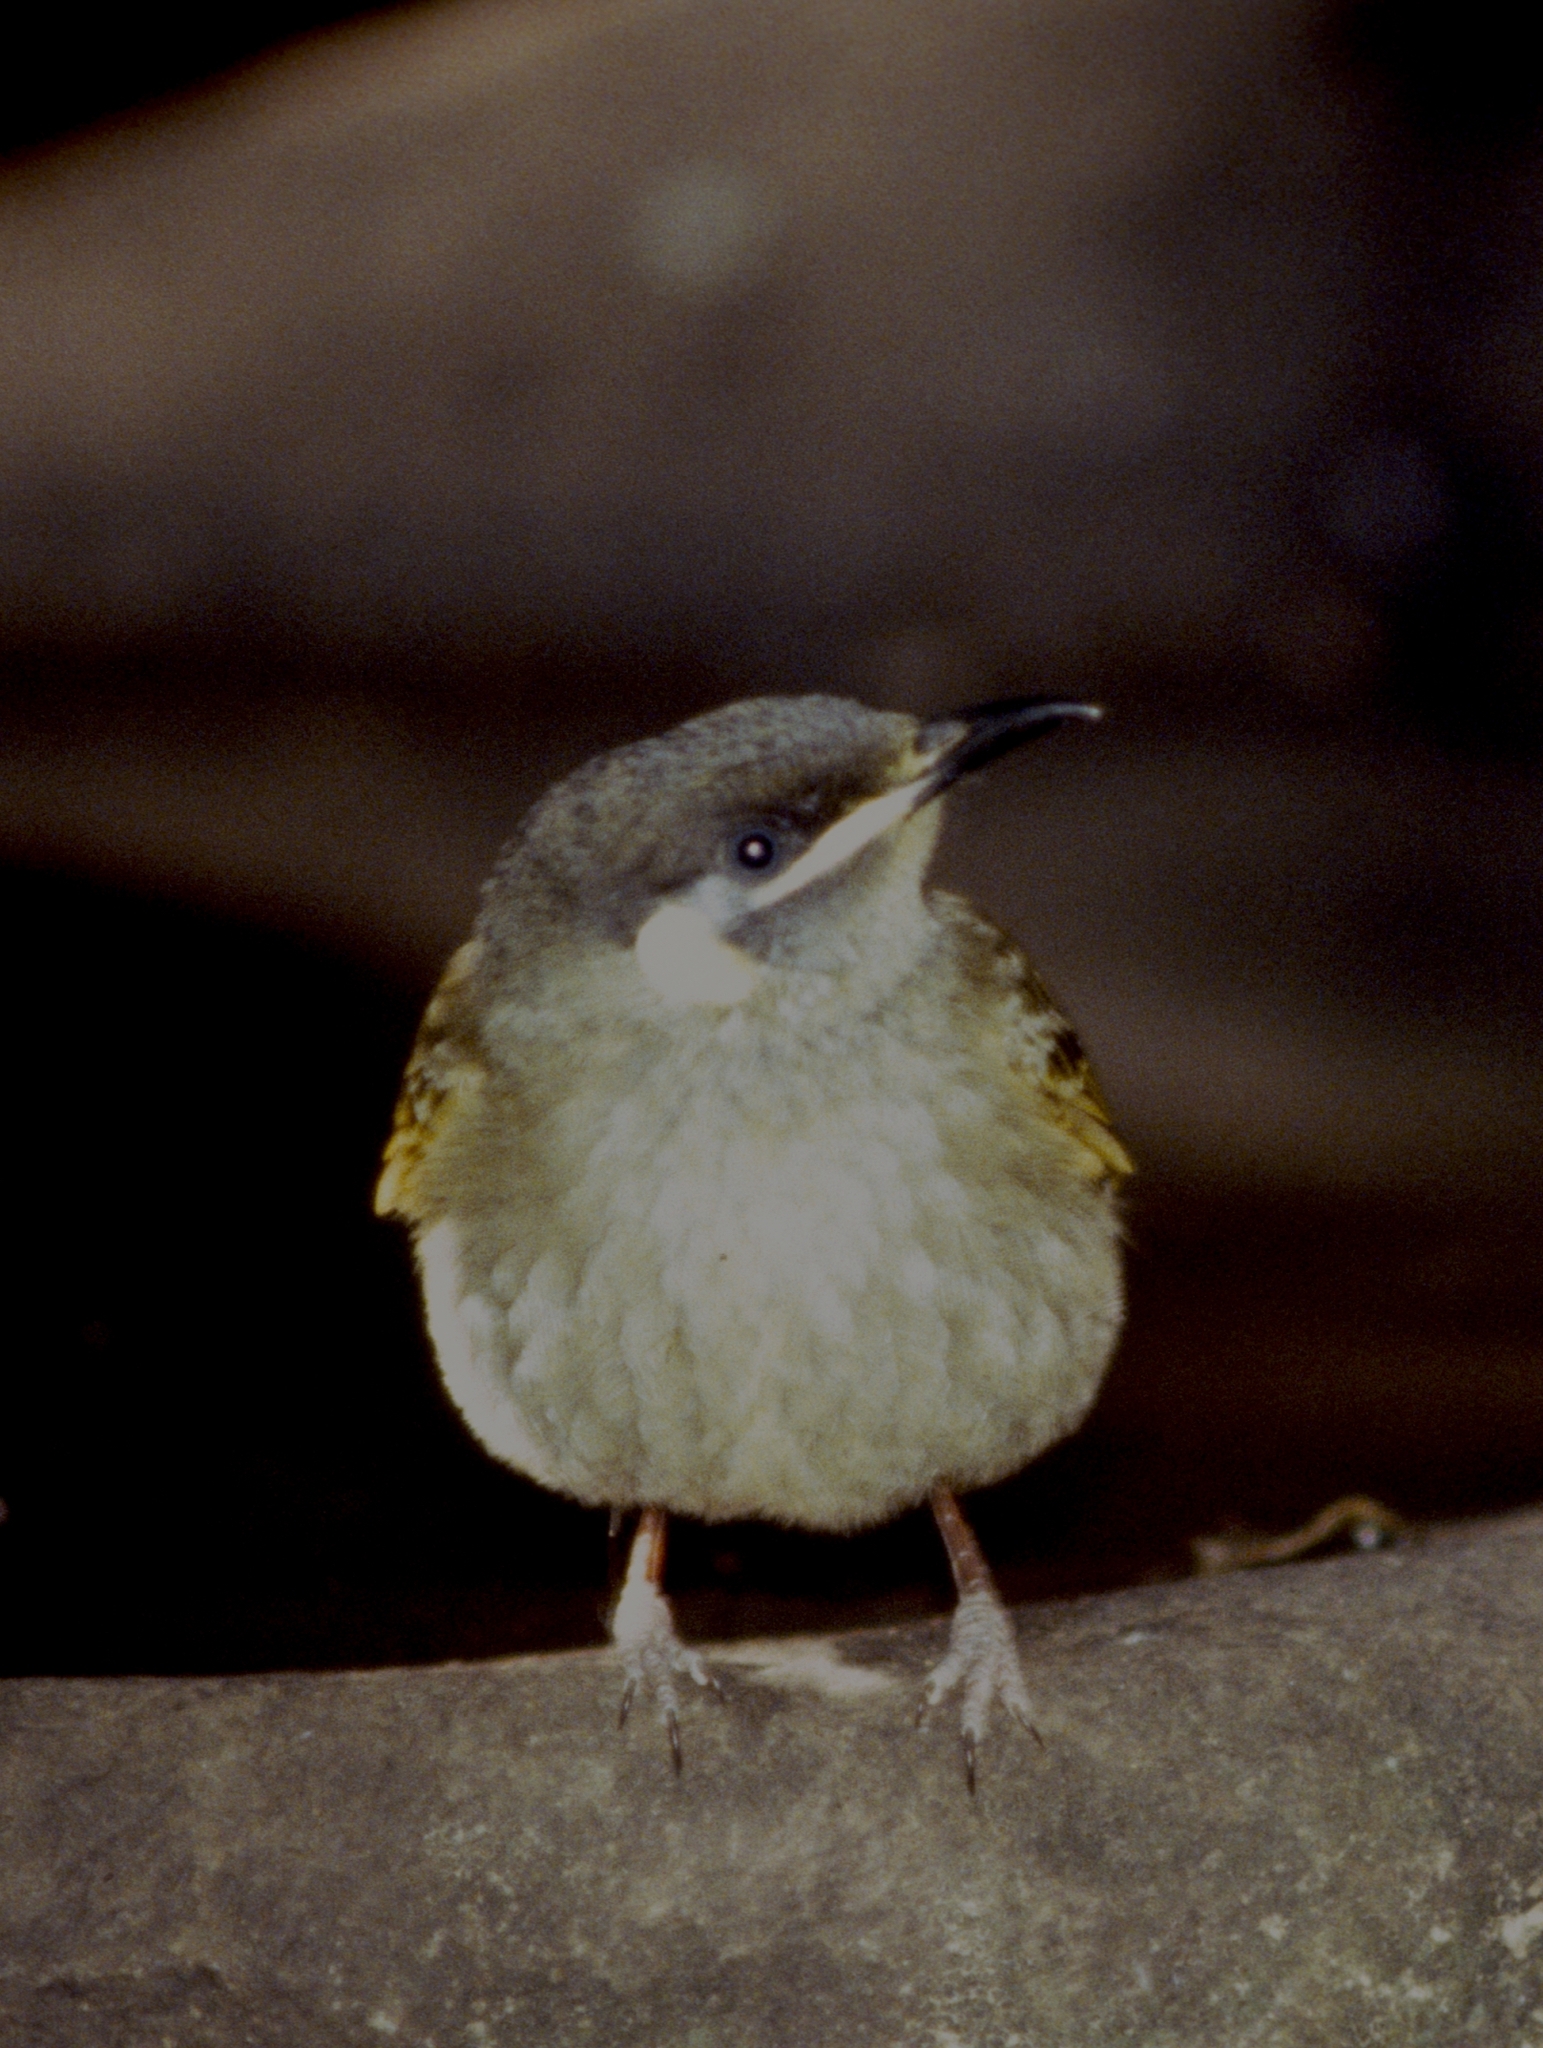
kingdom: Animalia
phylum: Chordata
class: Aves
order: Passeriformes
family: Meliphagidae
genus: Meliphaga
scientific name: Meliphaga lewinii
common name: Lewin's honeyeater
